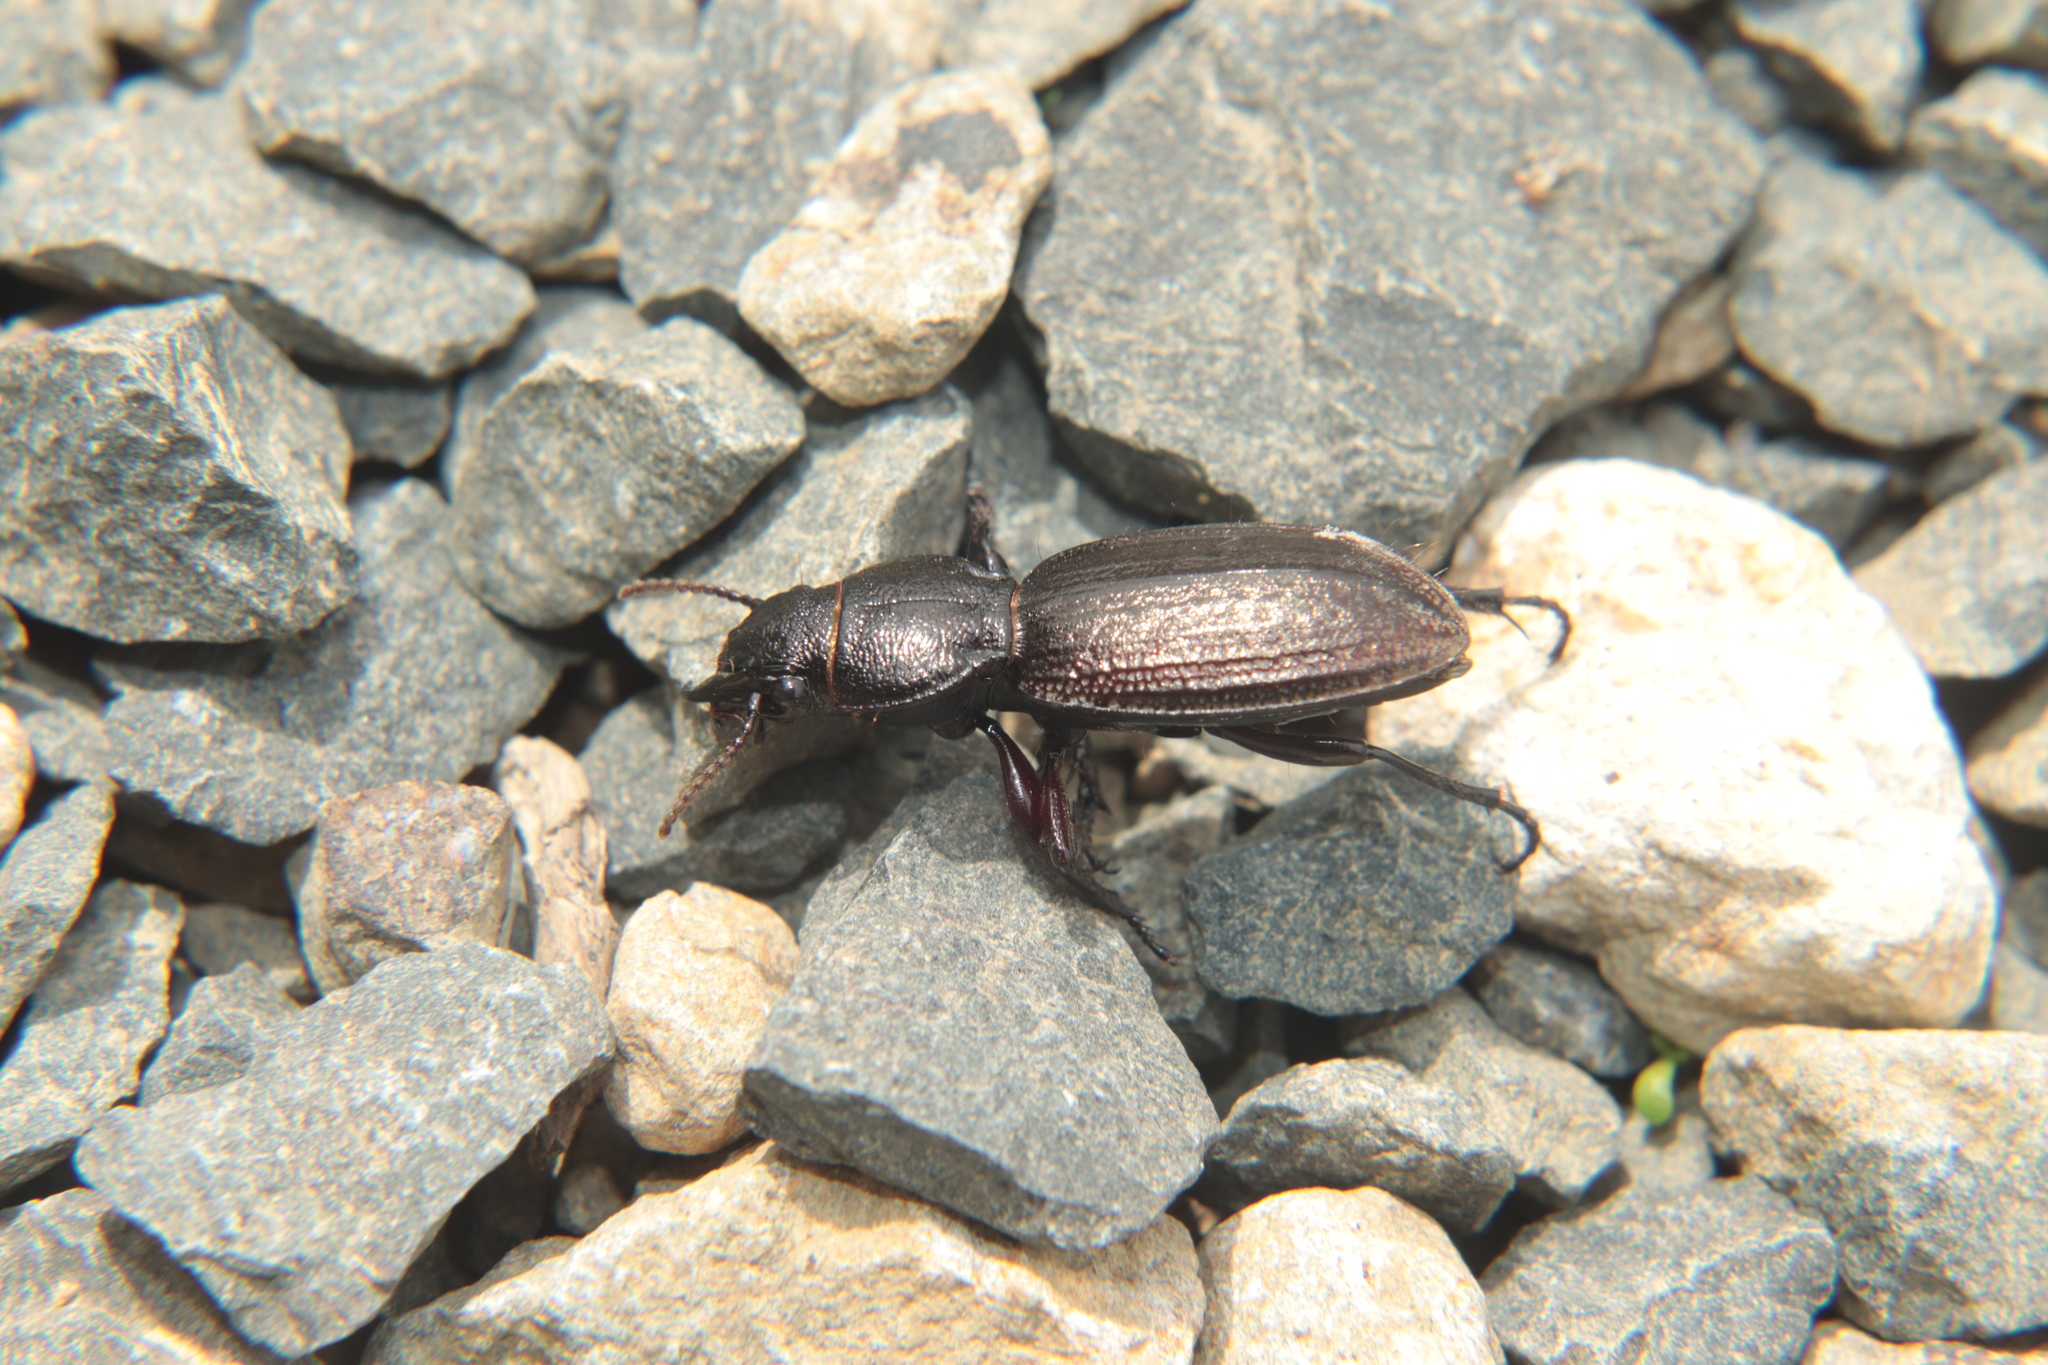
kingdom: Animalia
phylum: Arthropoda
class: Insecta
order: Coleoptera
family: Carabidae
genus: Mecodema
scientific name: Mecodema sculpturatum
